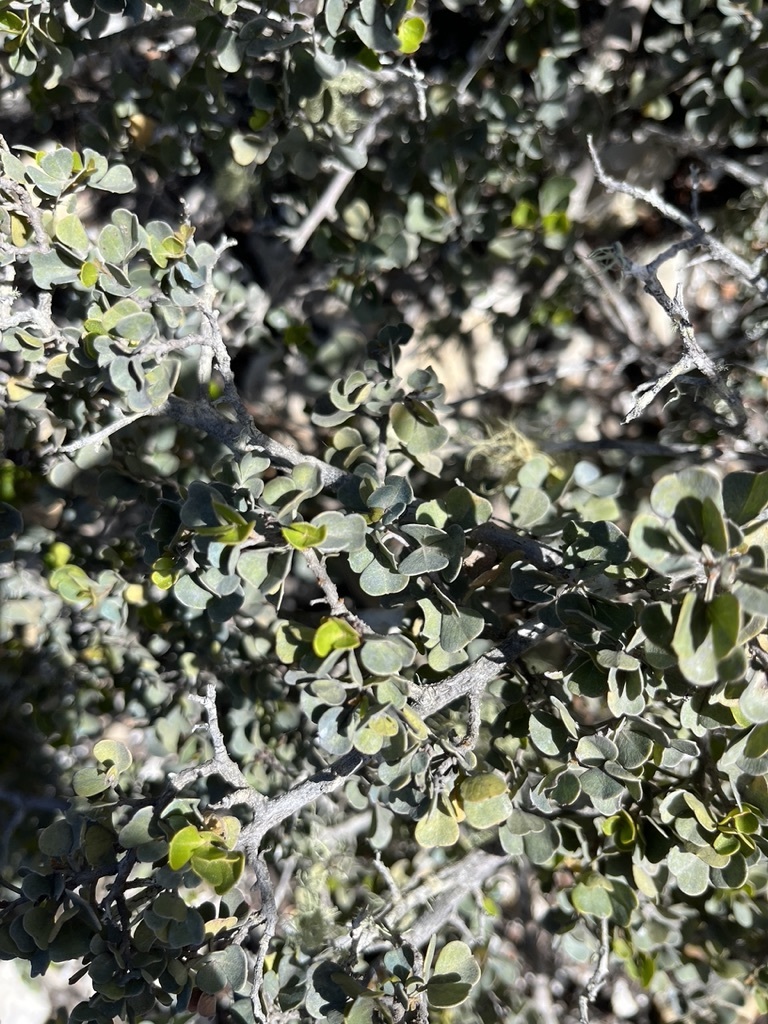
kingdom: Plantae
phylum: Tracheophyta
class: Magnoliopsida
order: Sapindales
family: Anacardiaceae
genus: Searsia
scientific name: Searsia glauca
